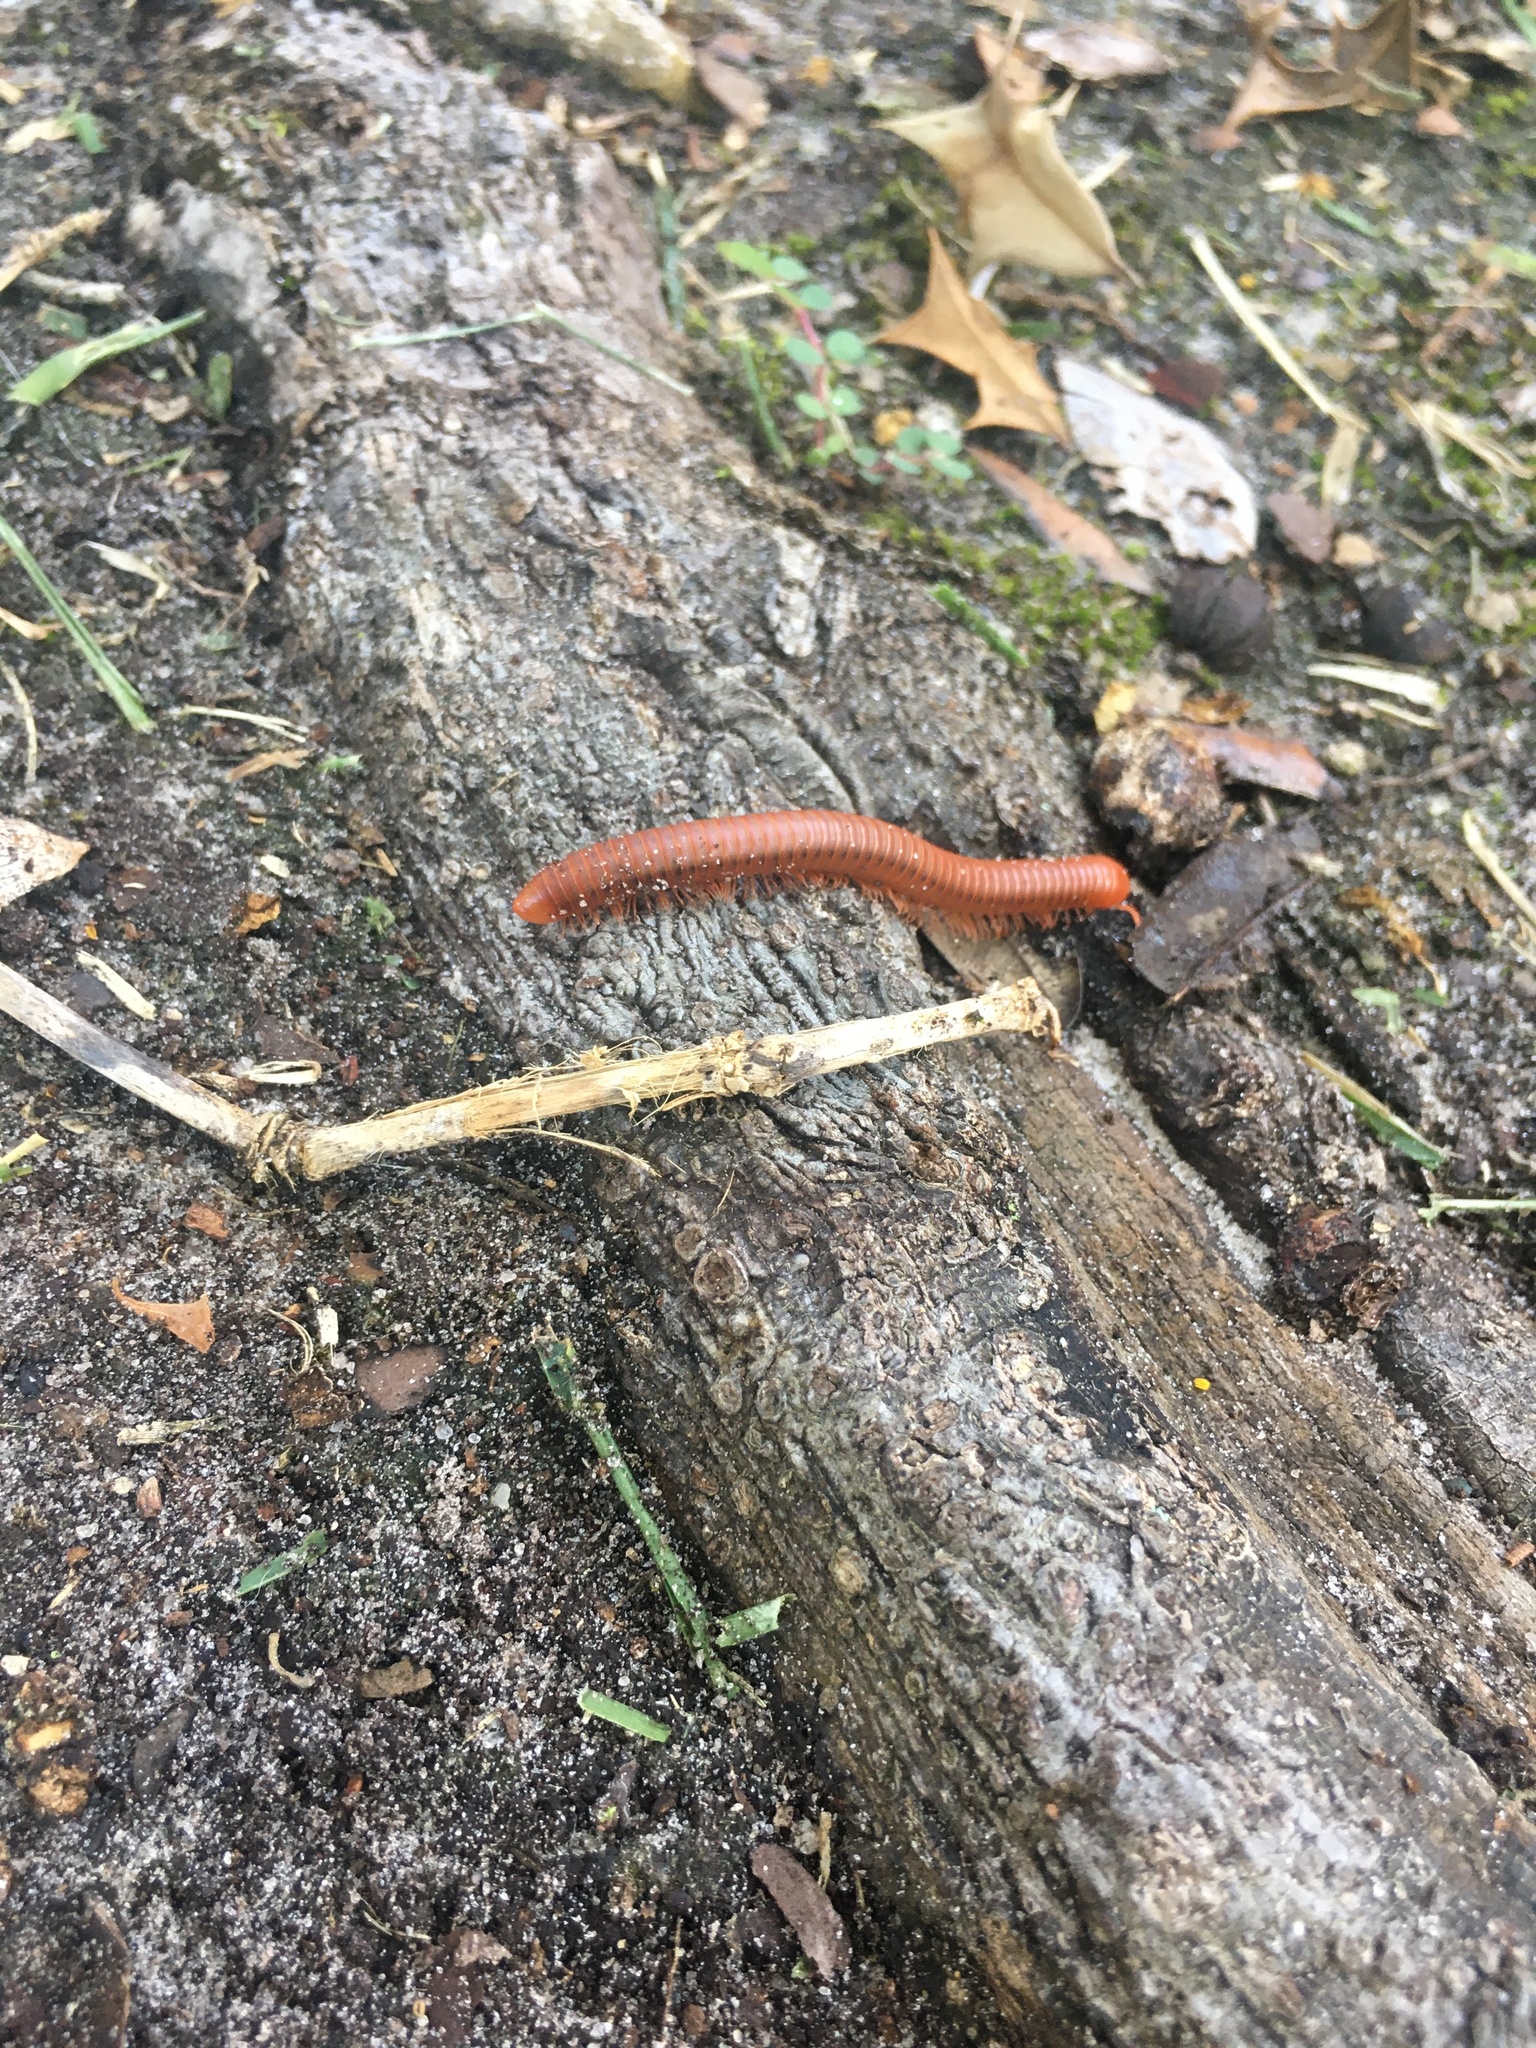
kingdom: Animalia
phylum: Arthropoda
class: Diplopoda
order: Spirobolida
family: Pachybolidae
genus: Trigoniulus
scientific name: Trigoniulus corallinus
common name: Millipede
